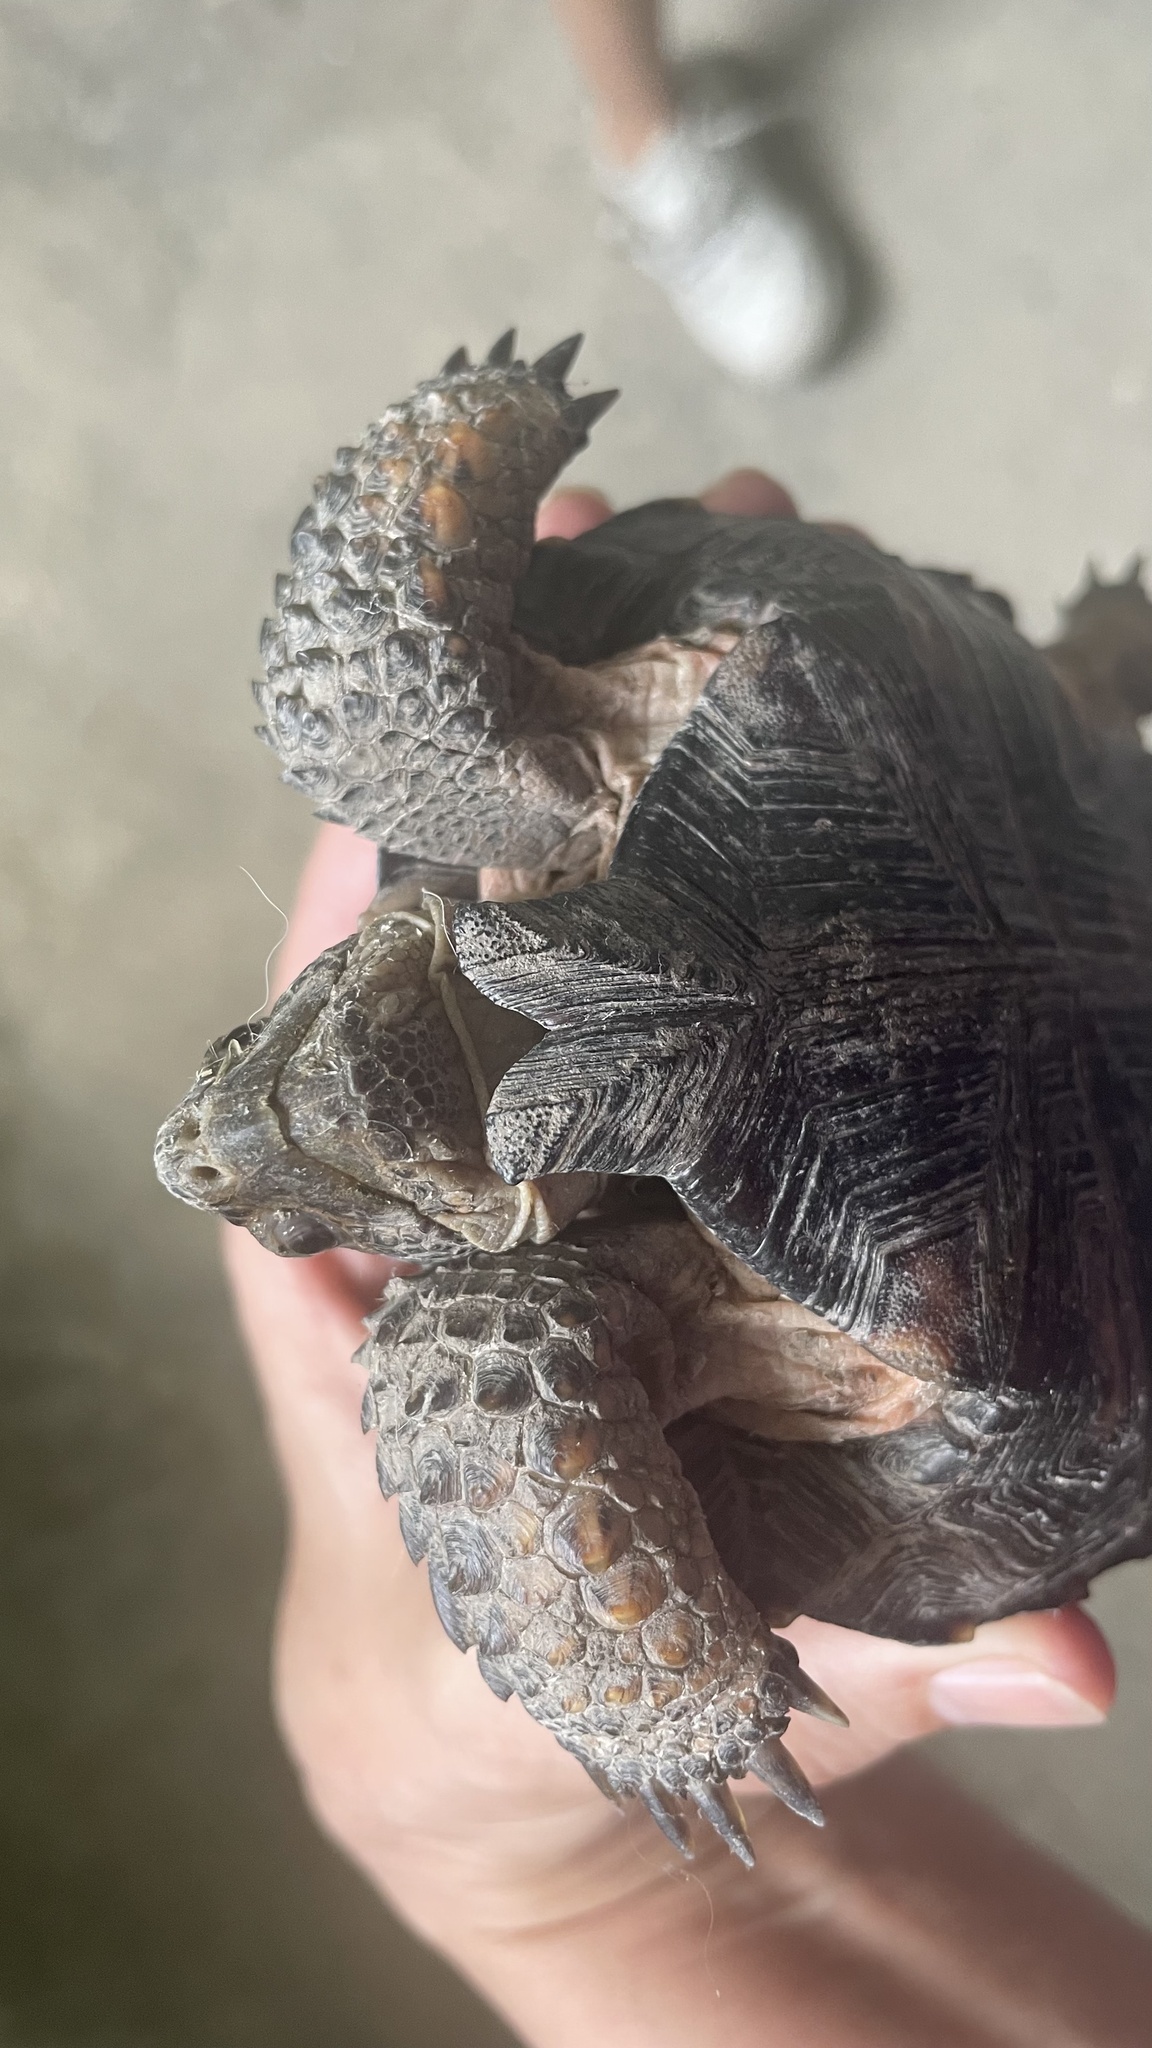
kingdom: Animalia
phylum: Chordata
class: Testudines
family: Testudinidae
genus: Gopherus
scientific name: Gopherus berlandieri
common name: Texas (gopher )tortoise
